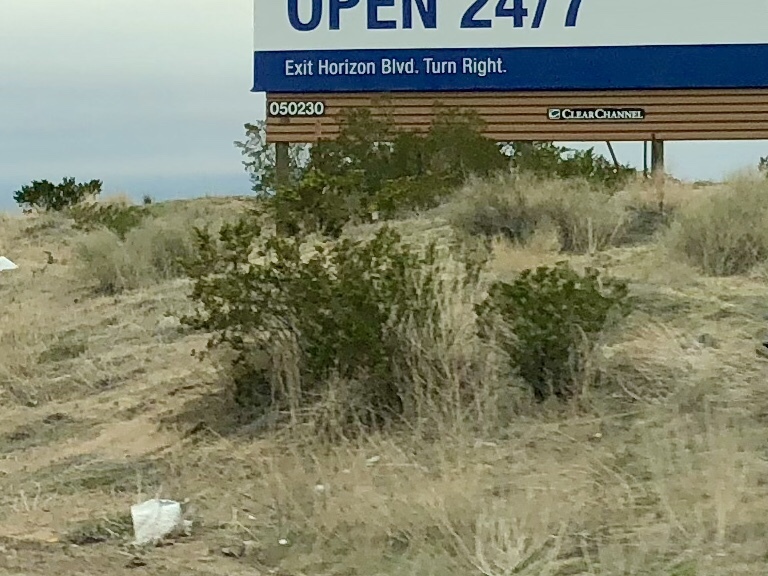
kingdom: Plantae
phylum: Tracheophyta
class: Magnoliopsida
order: Zygophyllales
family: Zygophyllaceae
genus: Larrea
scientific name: Larrea tridentata
